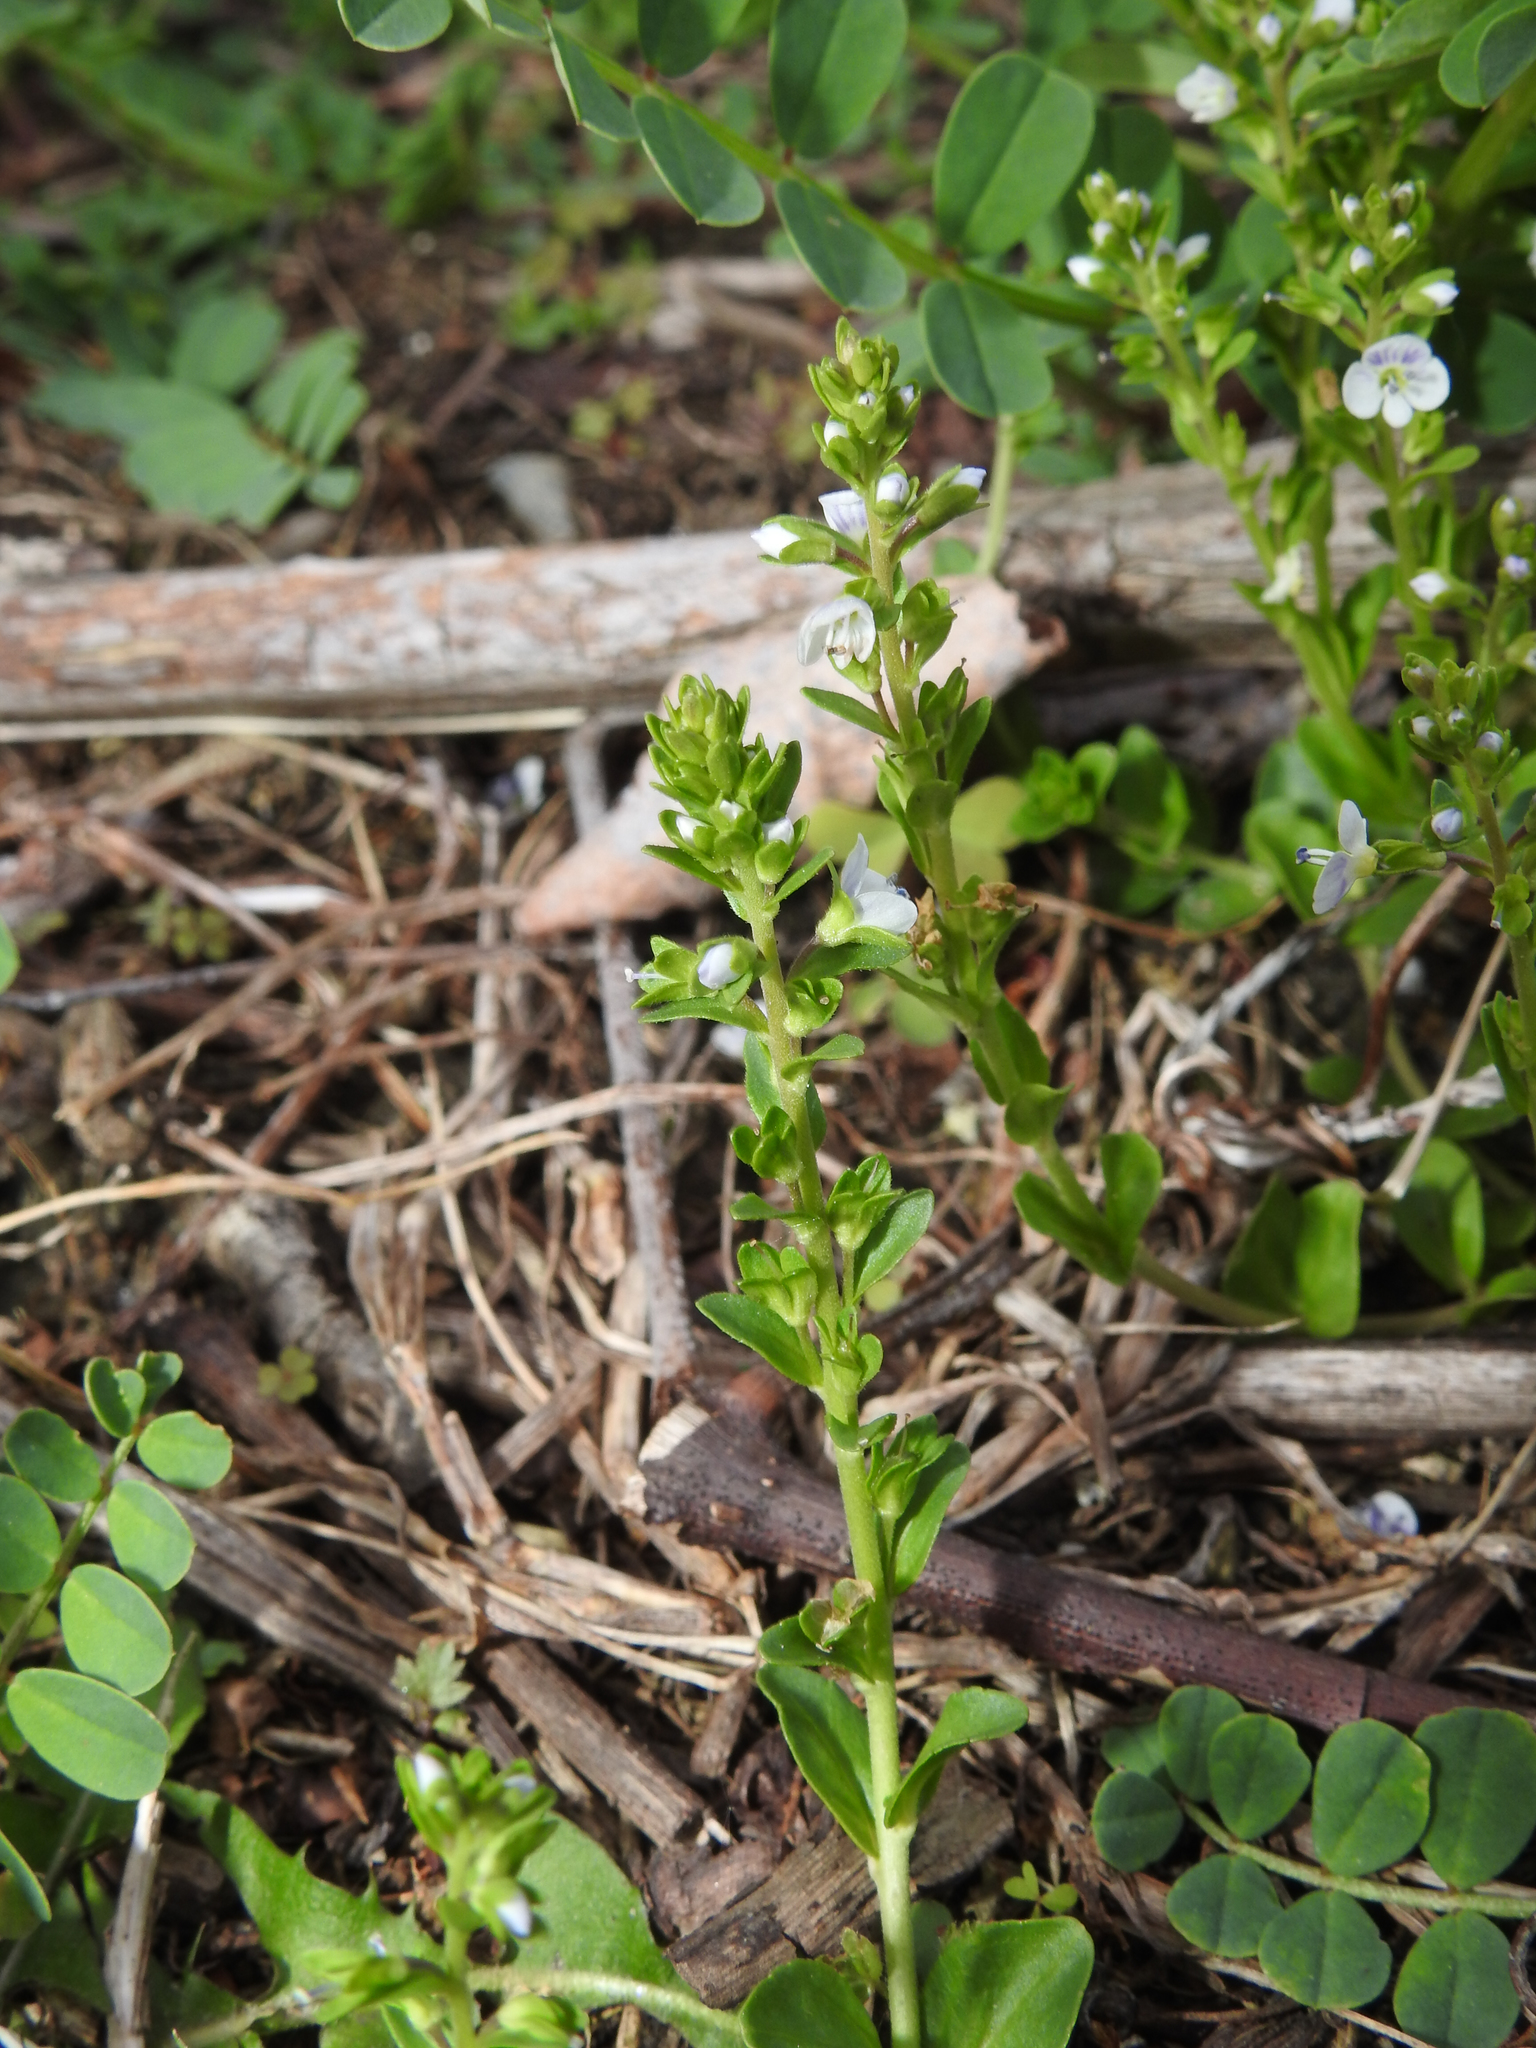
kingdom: Plantae
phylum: Tracheophyta
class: Magnoliopsida
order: Lamiales
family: Plantaginaceae
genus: Veronica
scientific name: Veronica serpyllifolia
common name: Thyme-leaved speedwell
